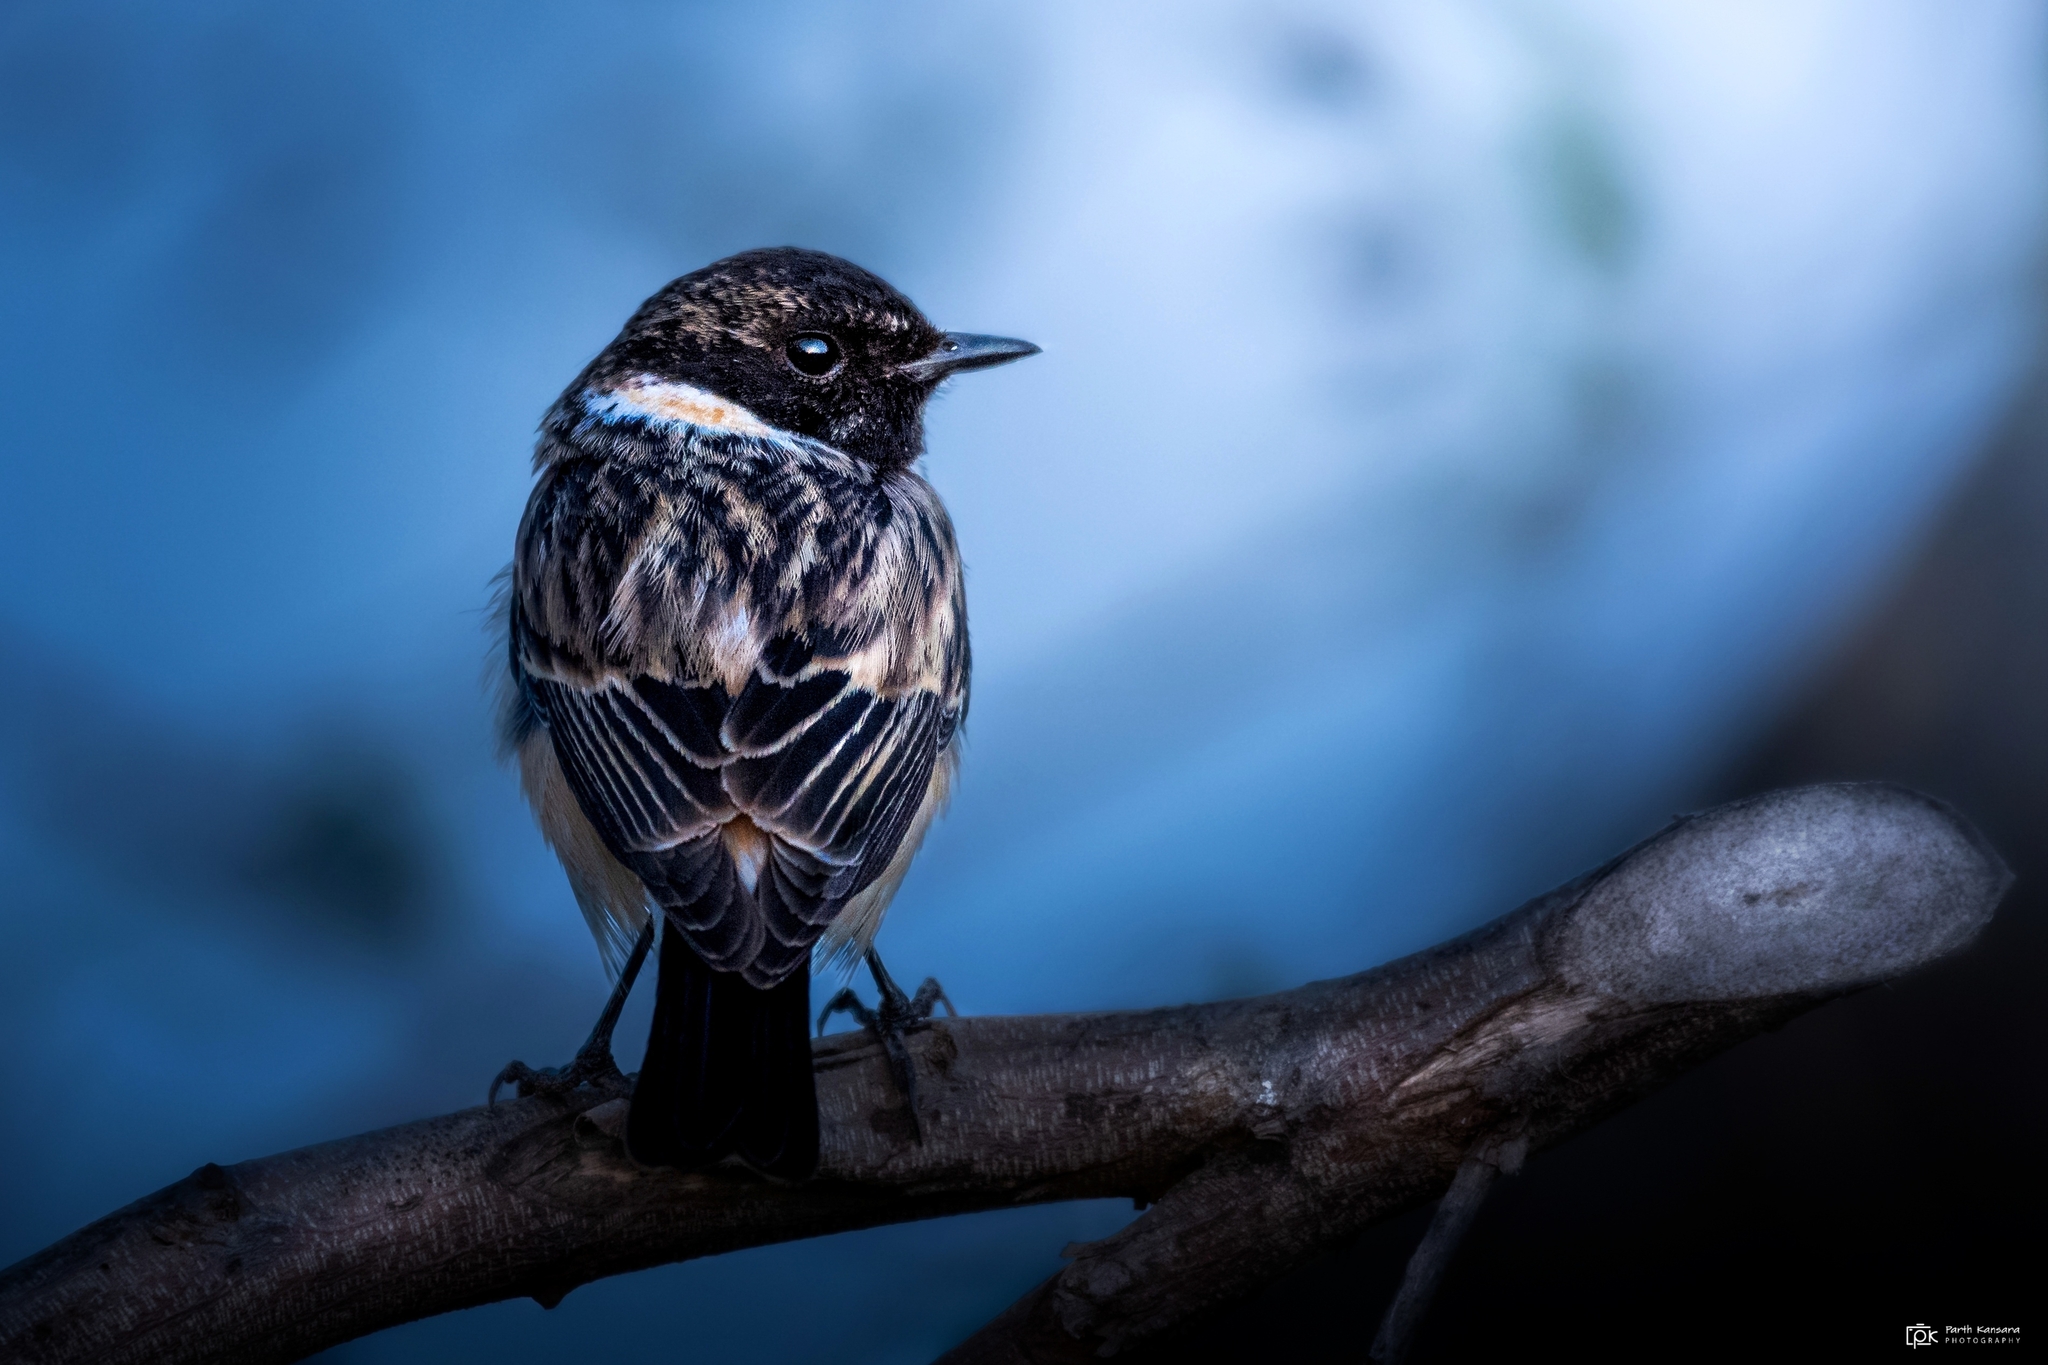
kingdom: Animalia
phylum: Chordata
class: Aves
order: Passeriformes
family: Muscicapidae
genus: Saxicola
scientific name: Saxicola maurus
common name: Siberian stonechat
